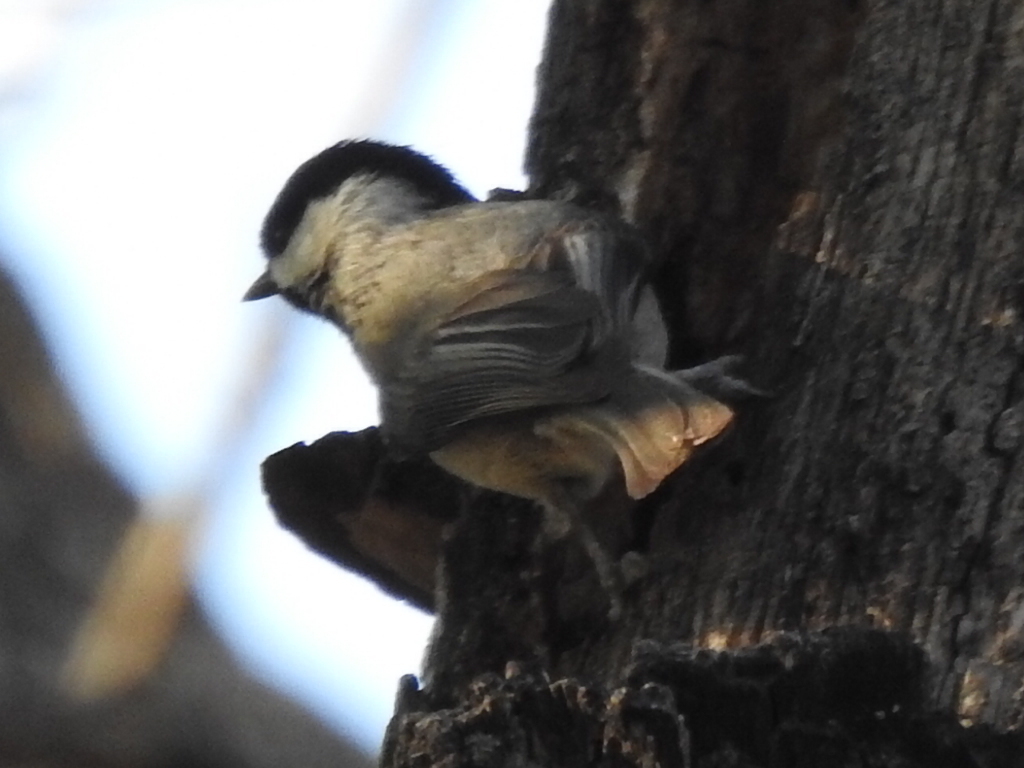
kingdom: Animalia
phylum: Chordata
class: Aves
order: Passeriformes
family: Paridae
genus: Poecile
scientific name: Poecile carolinensis
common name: Carolina chickadee
